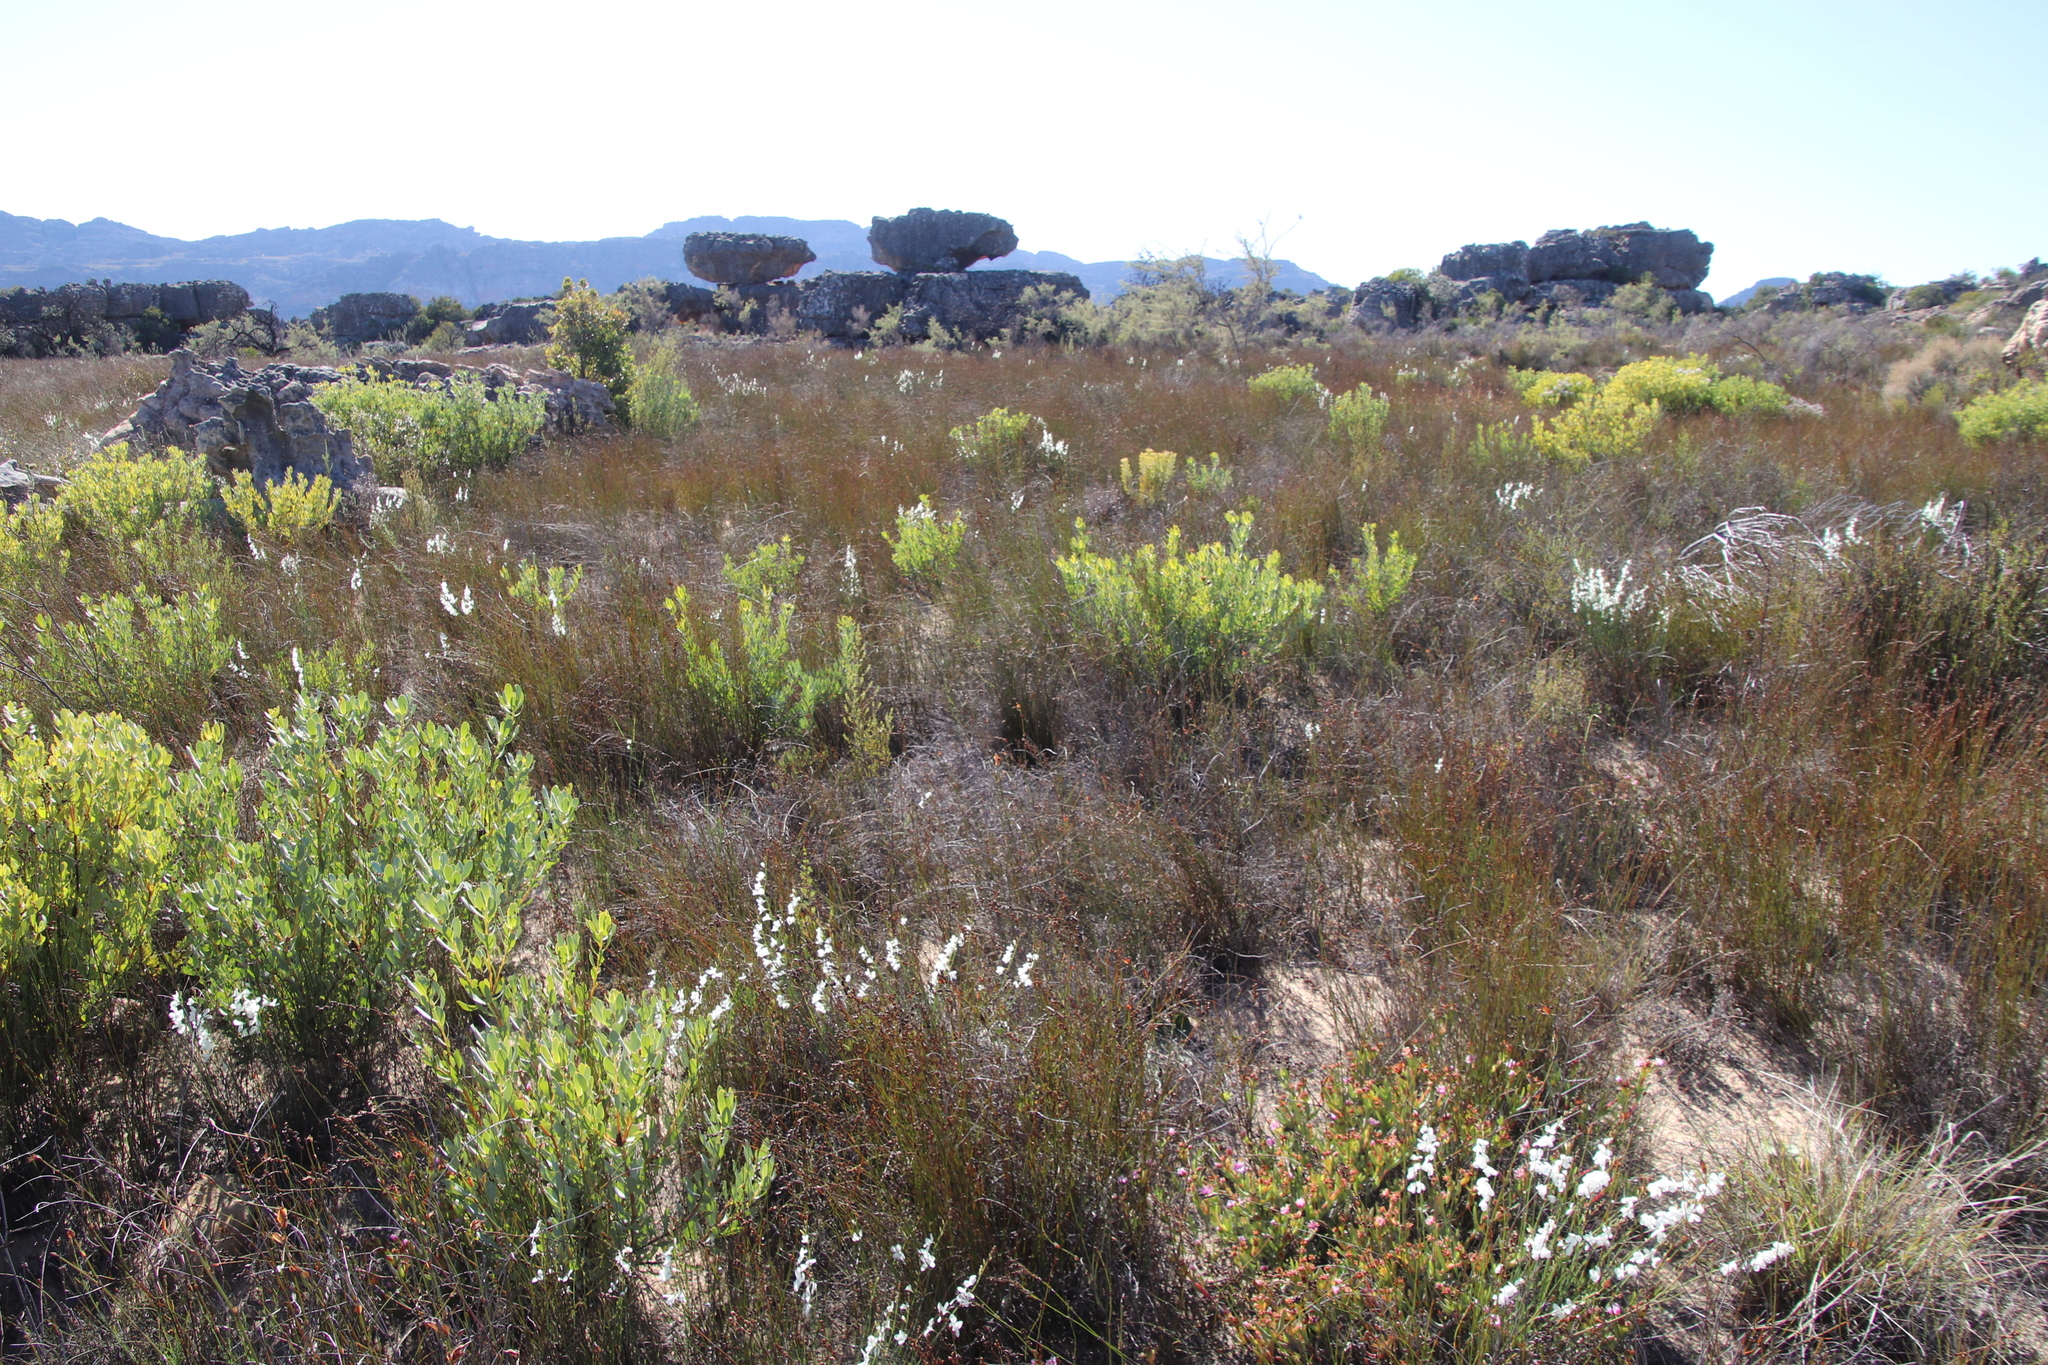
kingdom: Plantae
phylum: Tracheophyta
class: Magnoliopsida
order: Proteales
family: Proteaceae
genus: Leucadendron
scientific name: Leucadendron loranthifolium
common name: Green-flower sunbush
